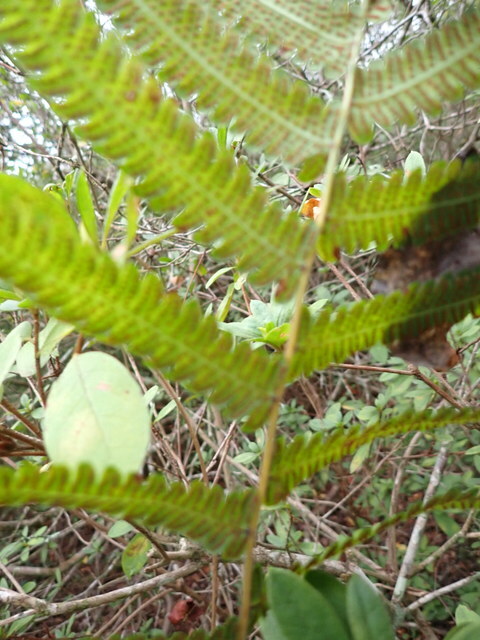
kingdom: Plantae
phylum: Tracheophyta
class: Polypodiopsida
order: Polypodiales
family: Thelypteridaceae
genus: Christella
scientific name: Christella dentata
